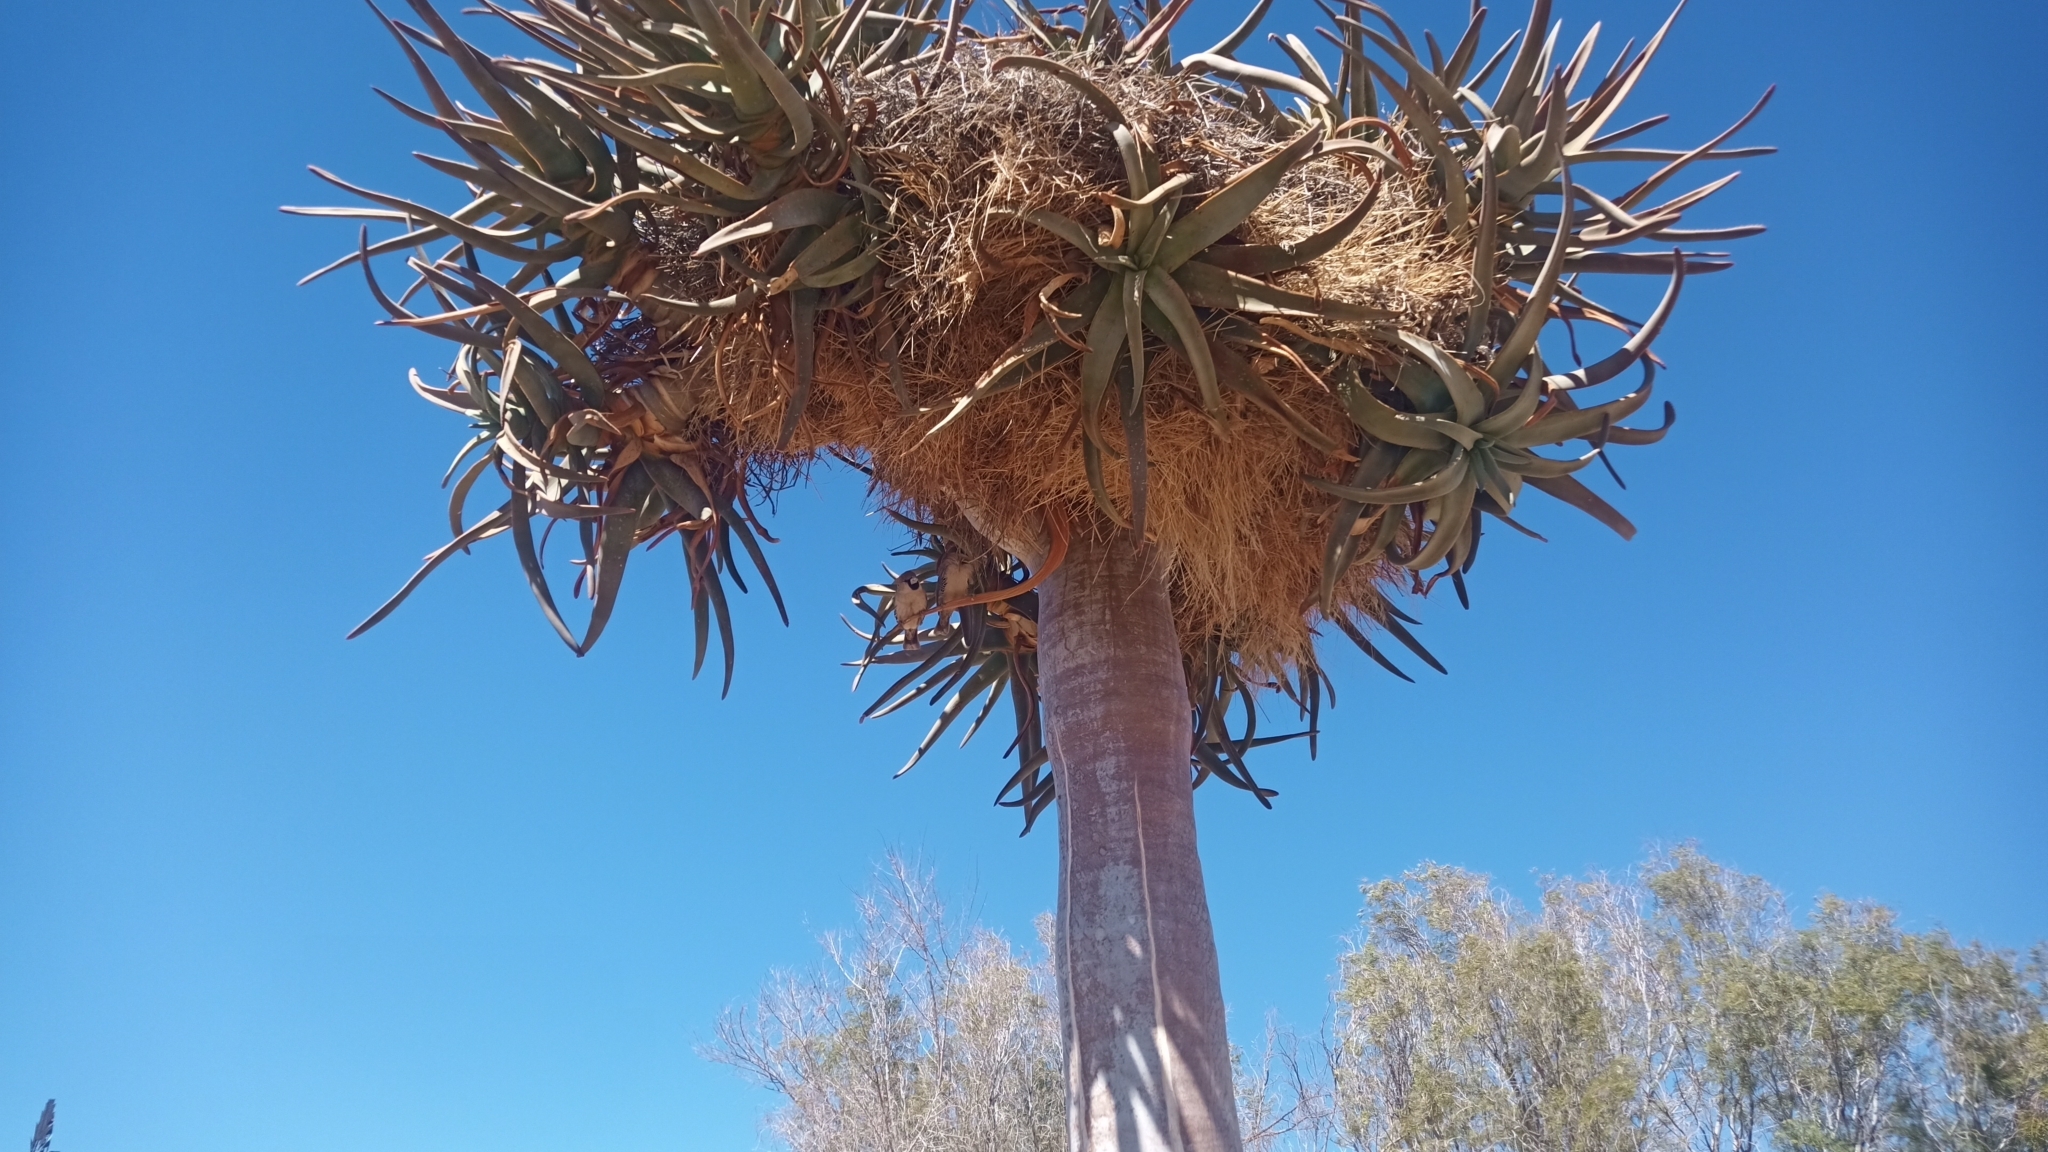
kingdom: Animalia
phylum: Chordata
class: Aves
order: Passeriformes
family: Passeridae
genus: Philetairus
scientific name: Philetairus socius
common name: Sociable weaver
